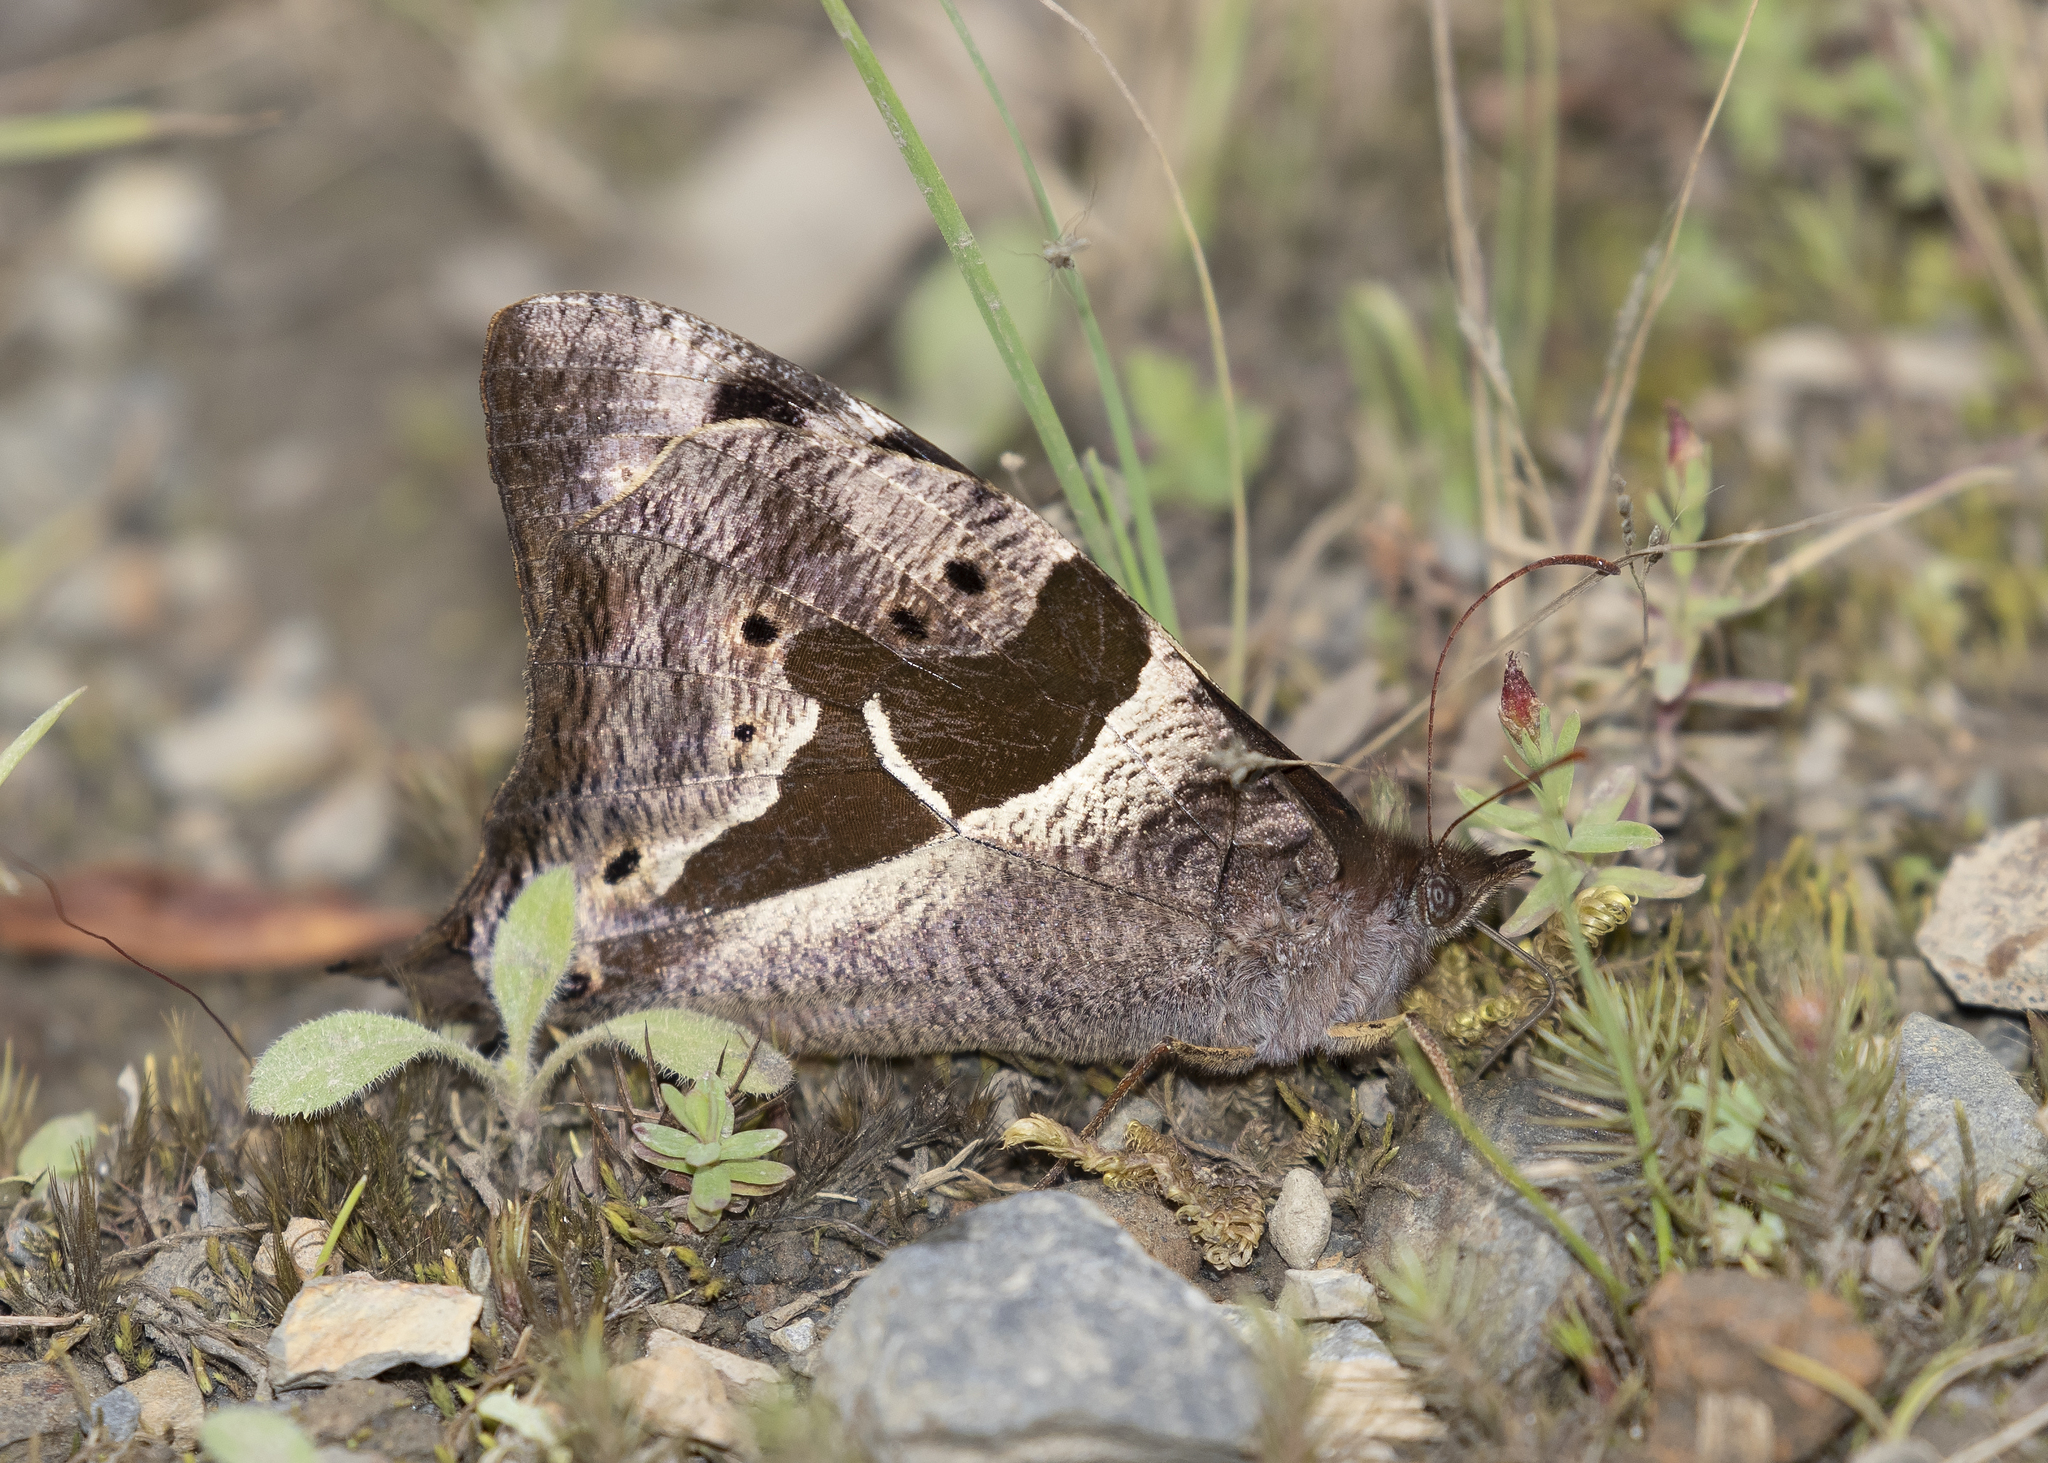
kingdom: Animalia
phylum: Arthropoda
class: Insecta
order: Lepidoptera
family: Nymphalidae
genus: Corades
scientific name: Corades cistene
